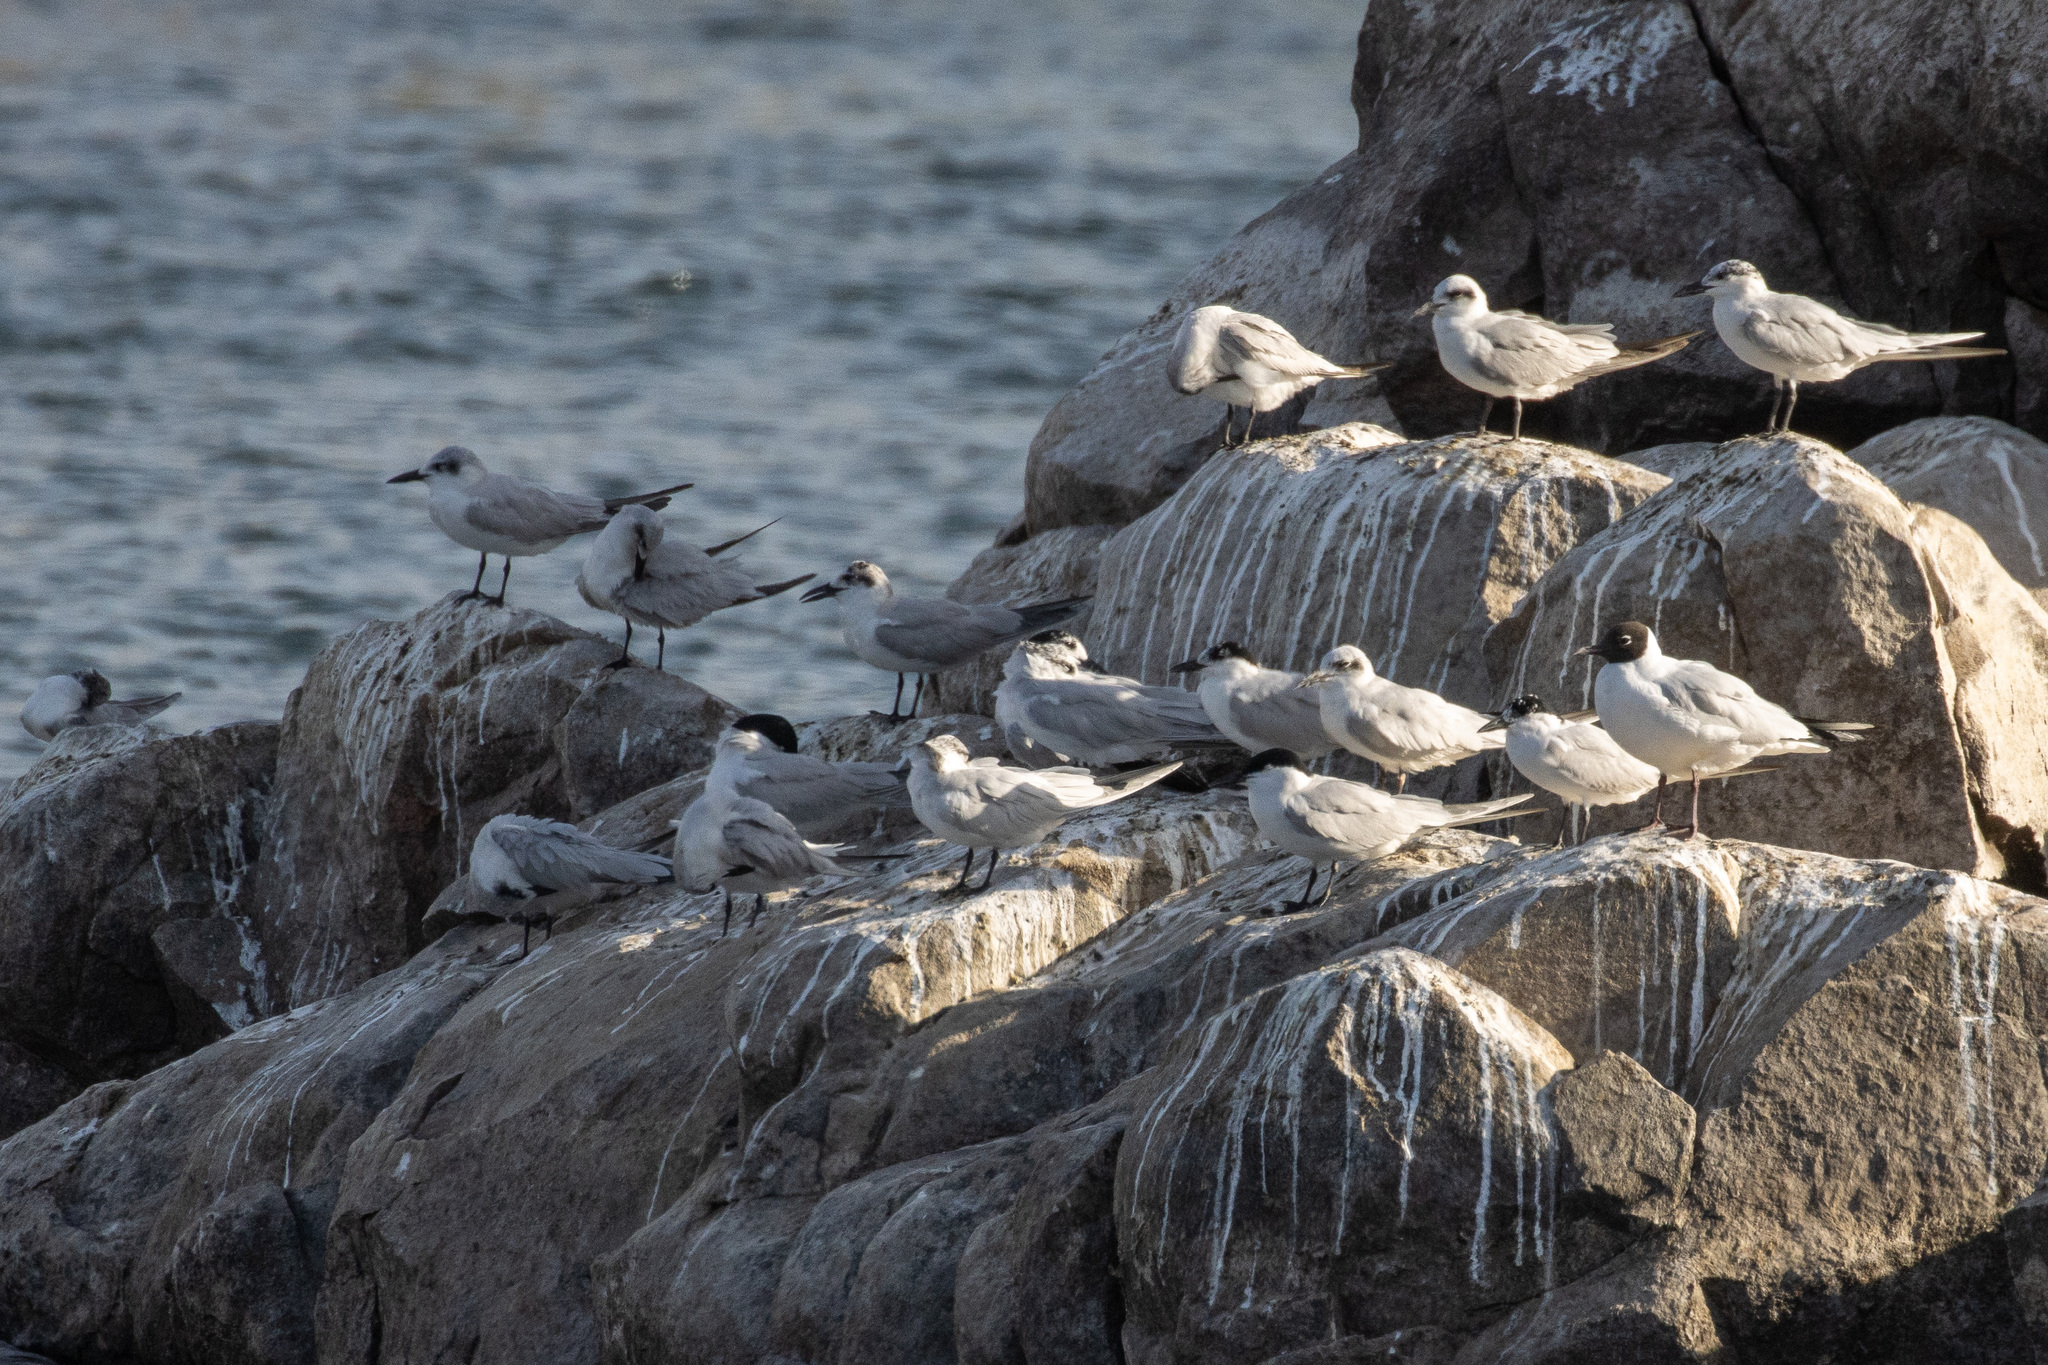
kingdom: Animalia
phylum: Chordata
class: Aves
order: Charadriiformes
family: Laridae
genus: Gelochelidon
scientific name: Gelochelidon nilotica
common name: Gull-billed tern
